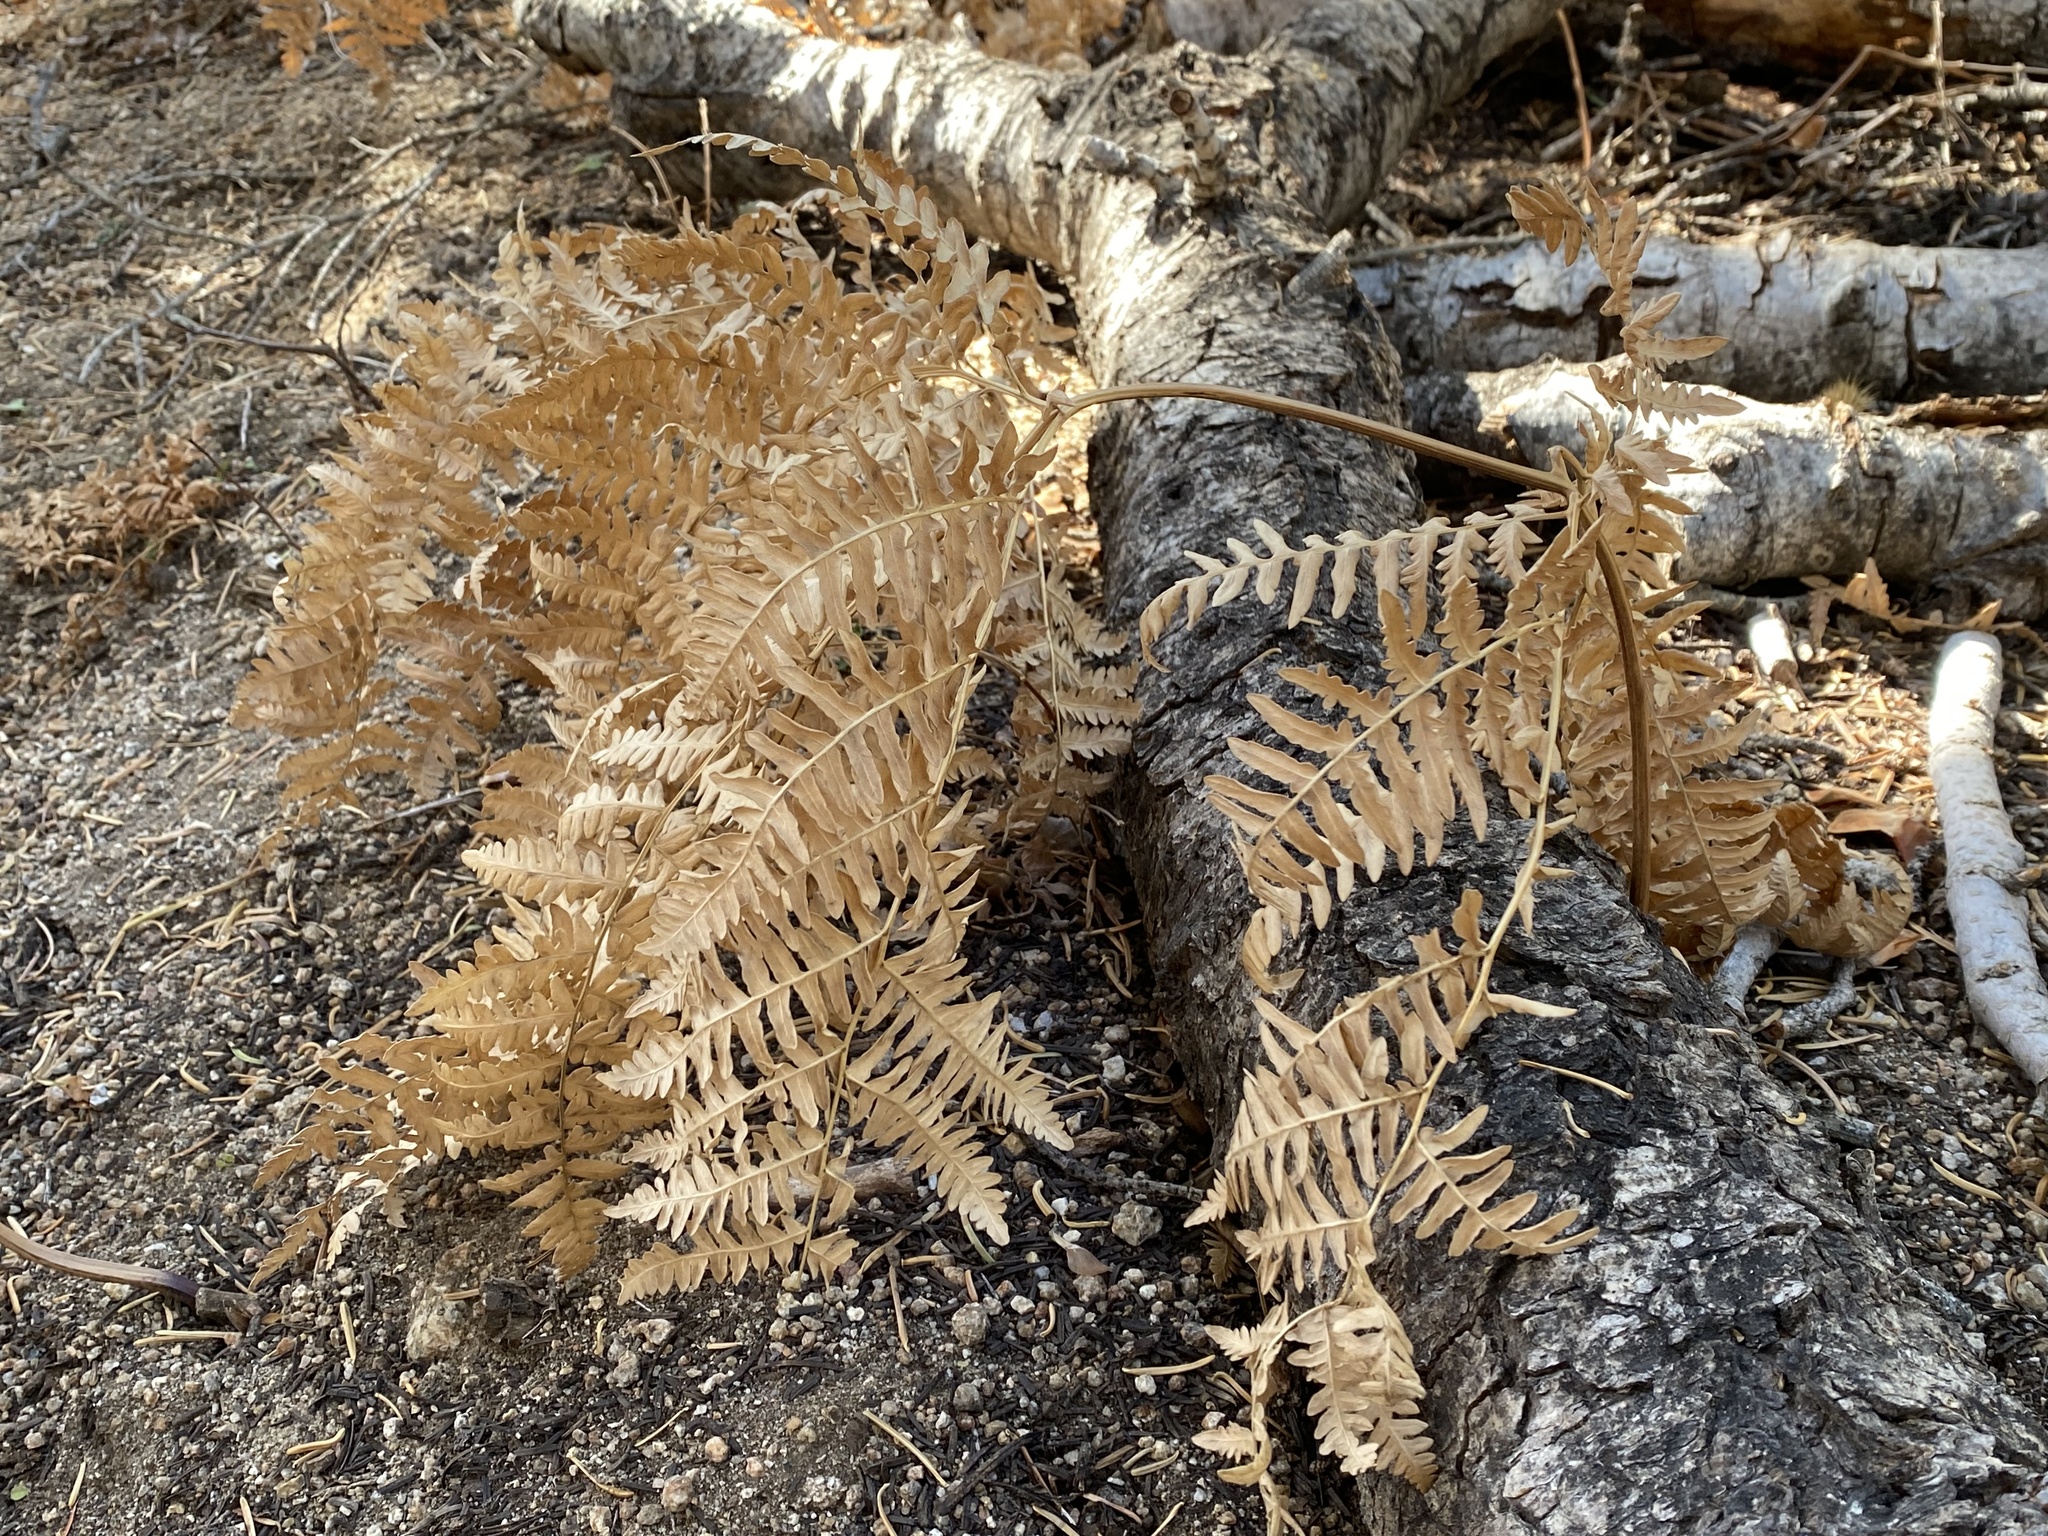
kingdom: Plantae
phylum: Tracheophyta
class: Polypodiopsida
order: Polypodiales
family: Dennstaedtiaceae
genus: Pteridium
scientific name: Pteridium aquilinum
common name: Bracken
